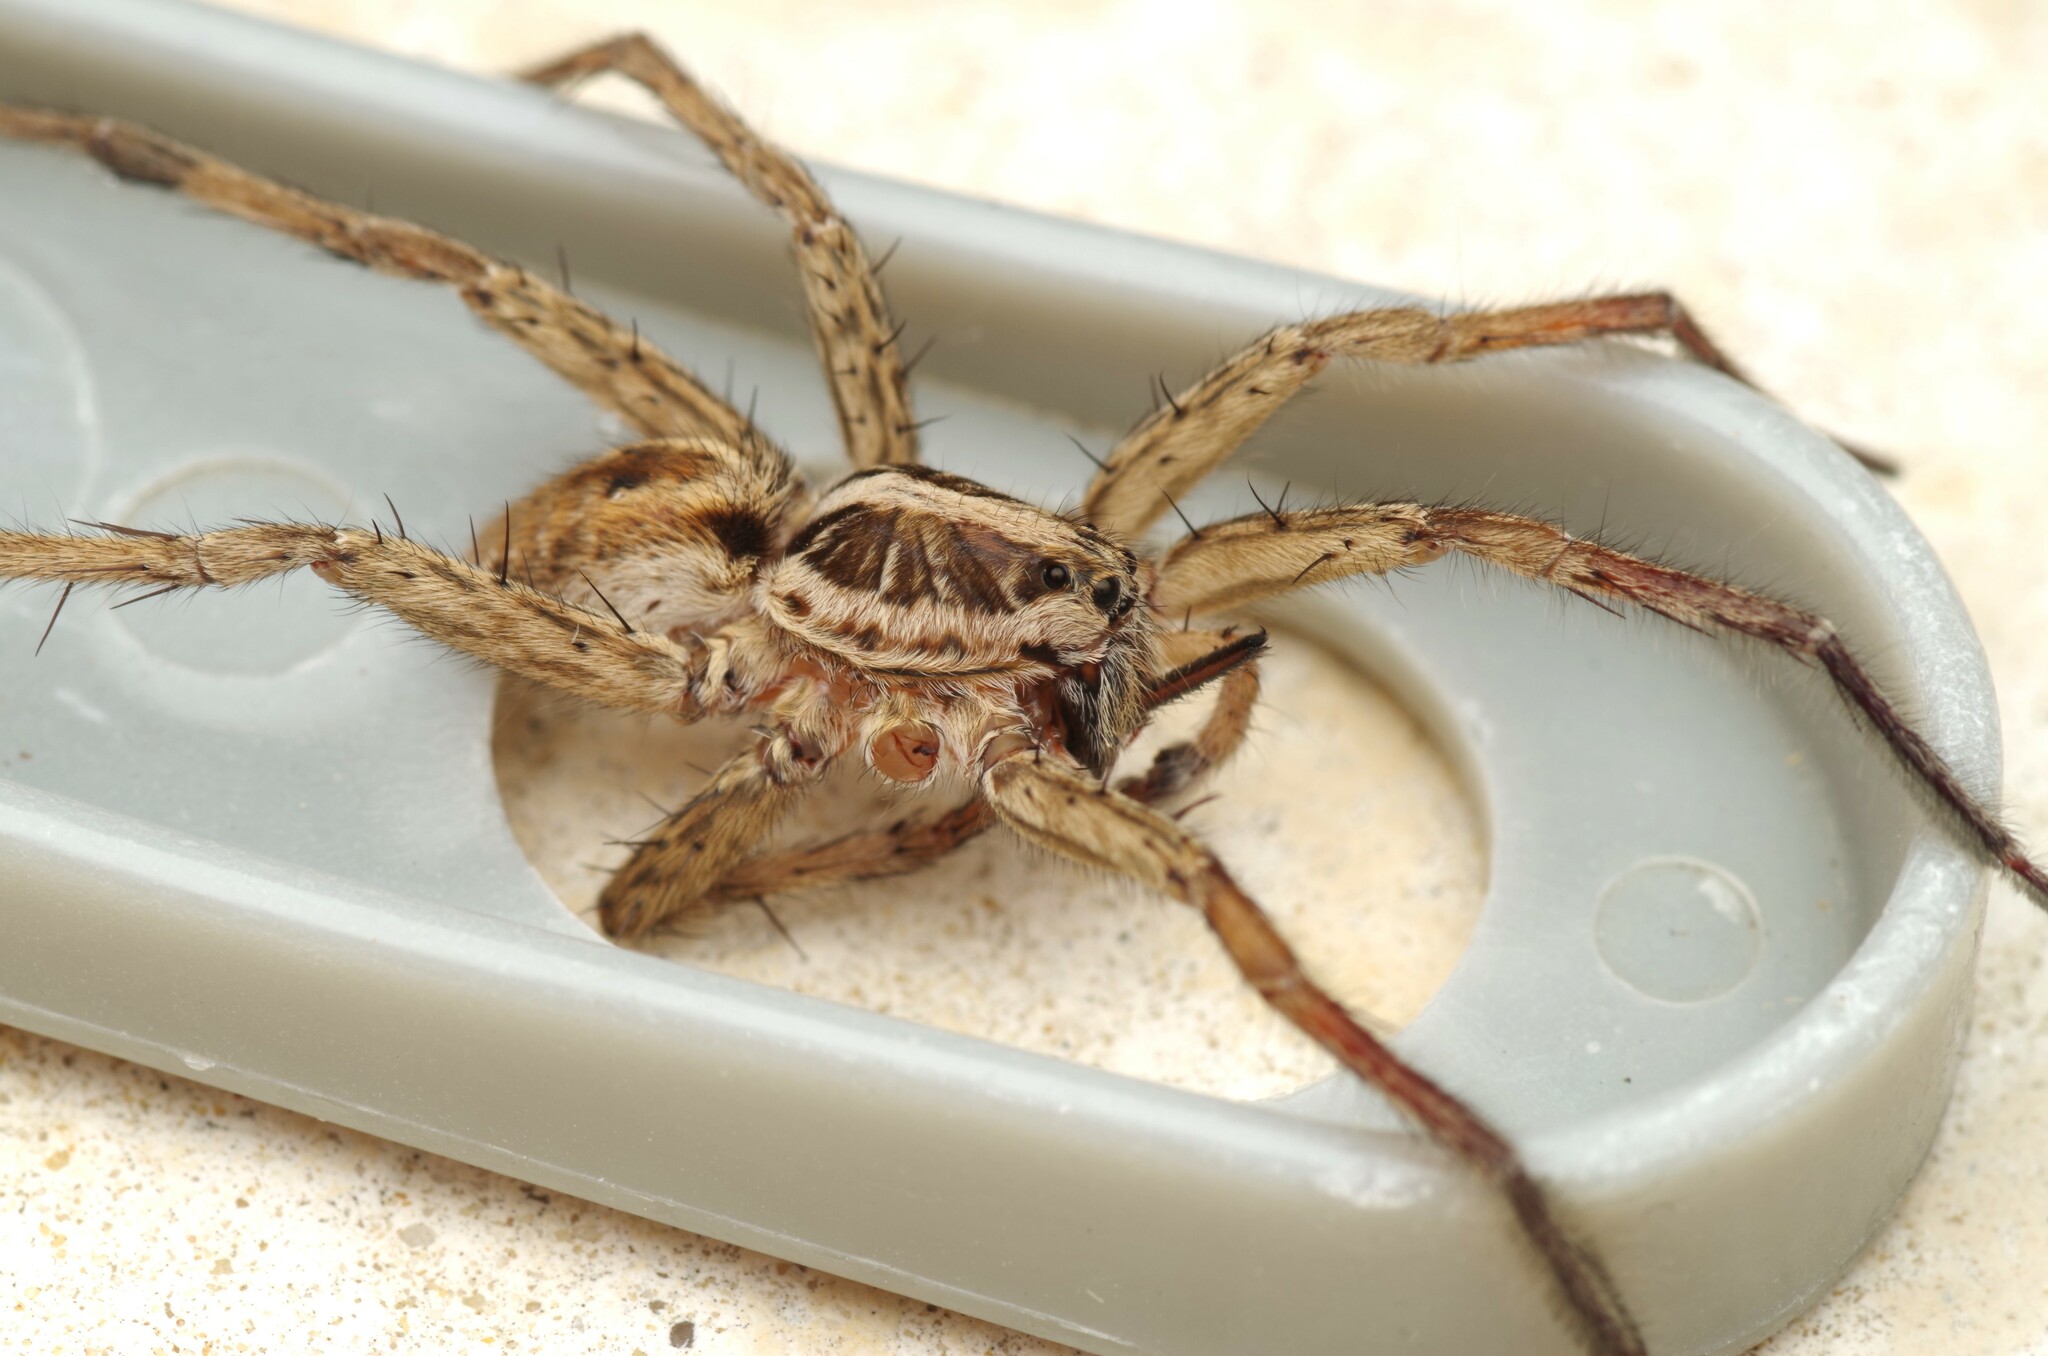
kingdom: Animalia
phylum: Arthropoda
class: Arachnida
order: Araneae
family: Lycosidae
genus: Hogna
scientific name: Hogna radiata
